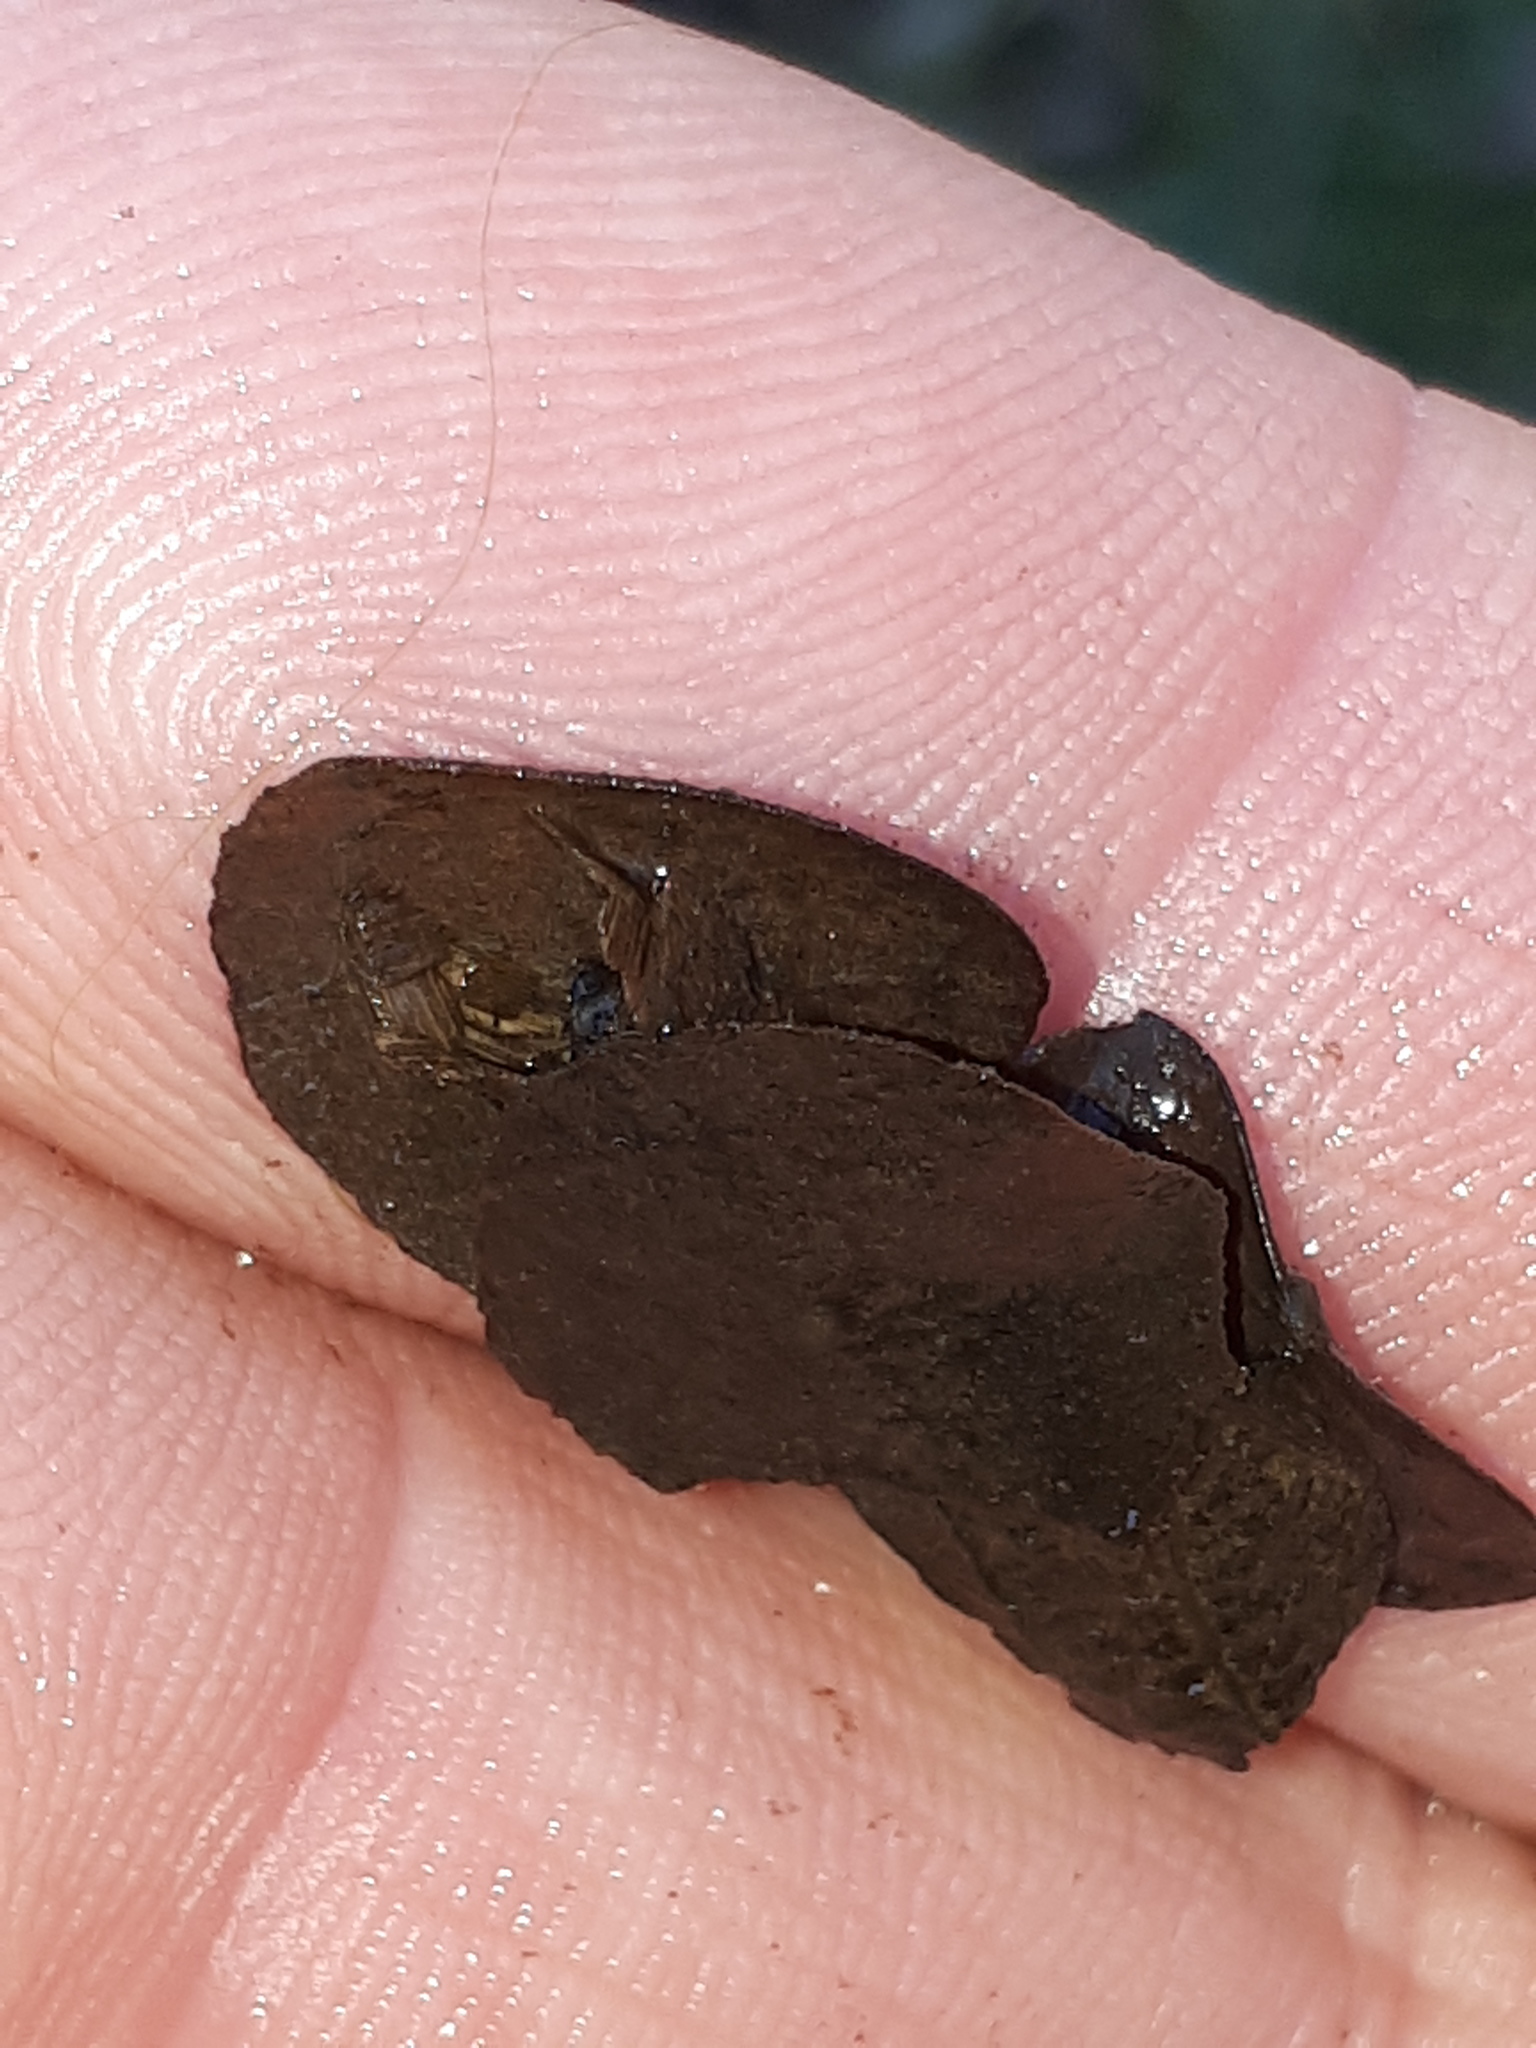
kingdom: Animalia
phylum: Arthropoda
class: Insecta
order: Trichoptera
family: Limnephilidae
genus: Glyphotaelius
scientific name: Glyphotaelius pellucidus
